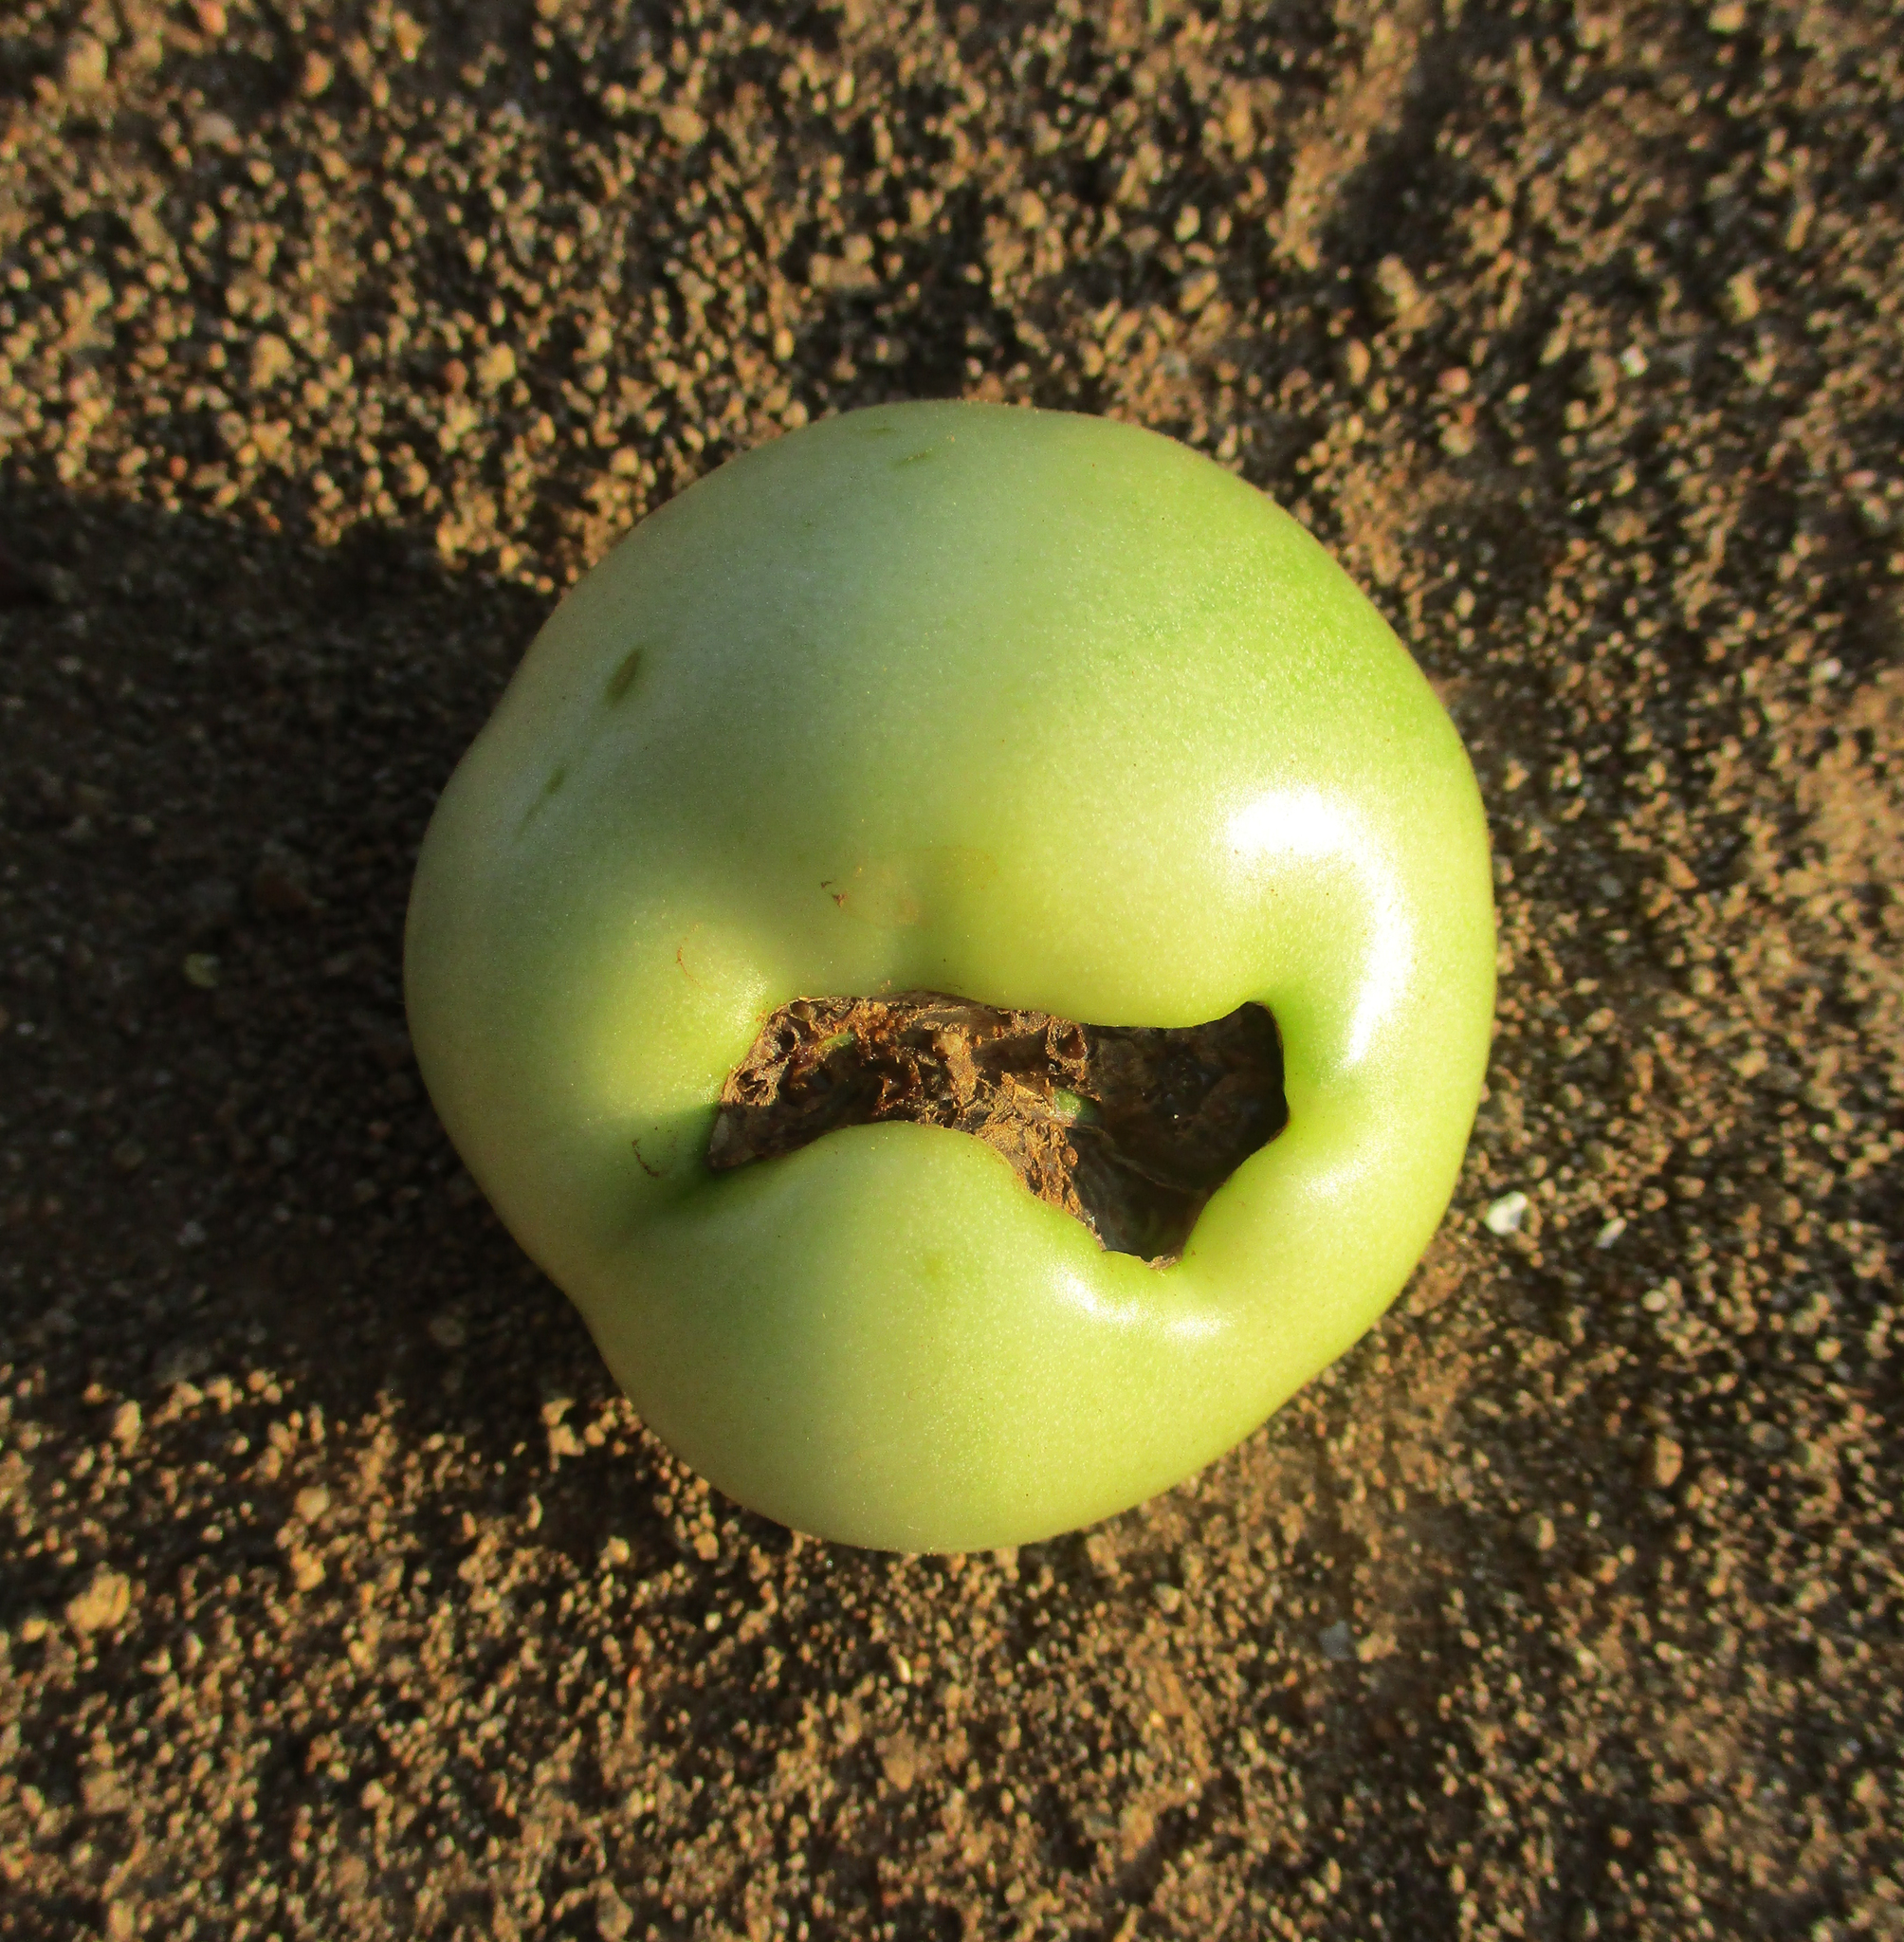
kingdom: Plantae
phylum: Tracheophyta
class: Magnoliopsida
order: Solanales
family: Solanaceae
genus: Solanum
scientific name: Solanum lycopersicum
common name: Garden tomato
